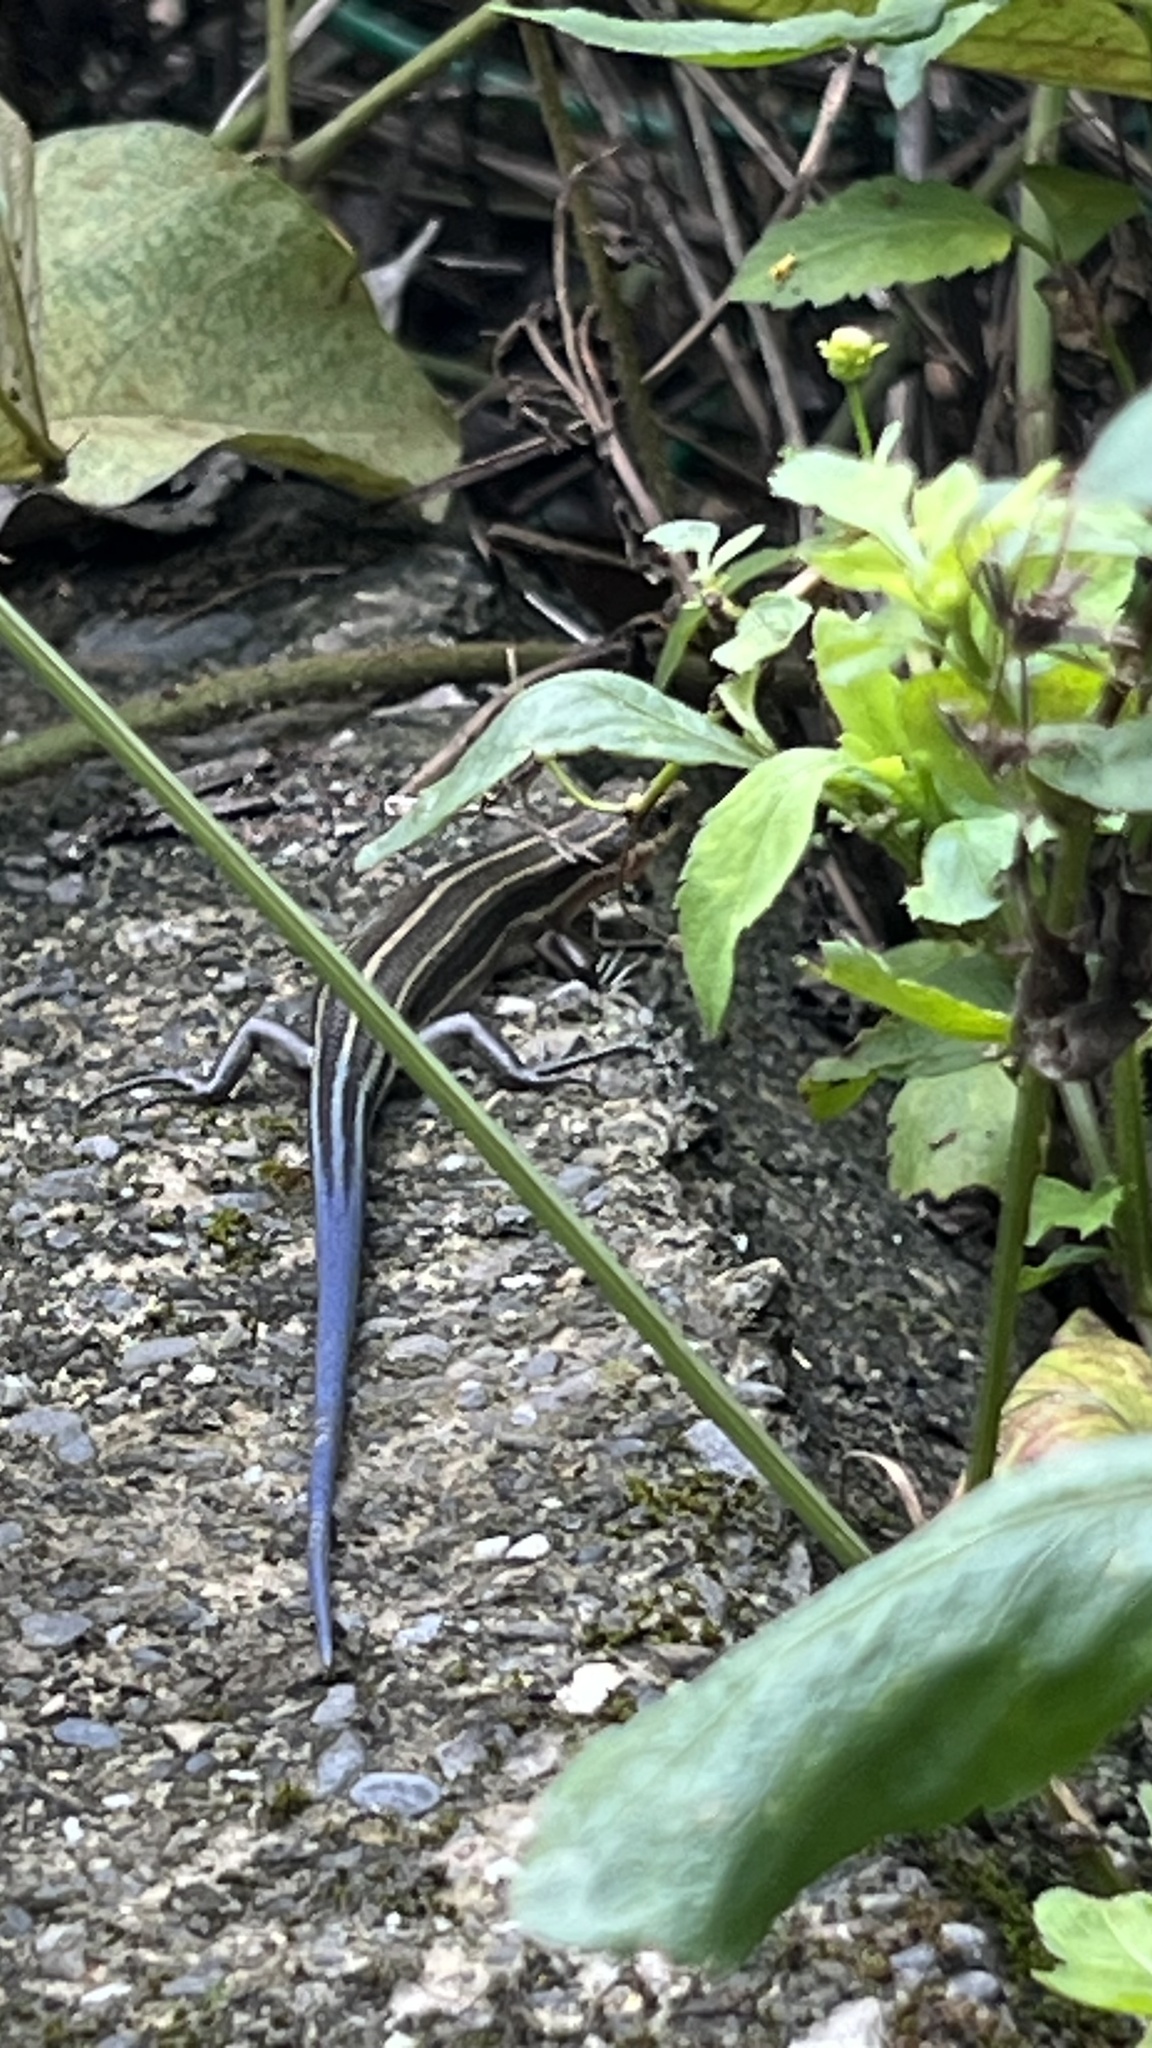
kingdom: Animalia
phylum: Chordata
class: Squamata
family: Scincidae
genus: Plestiodon
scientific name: Plestiodon elegans
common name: Shanghai elegant skink
